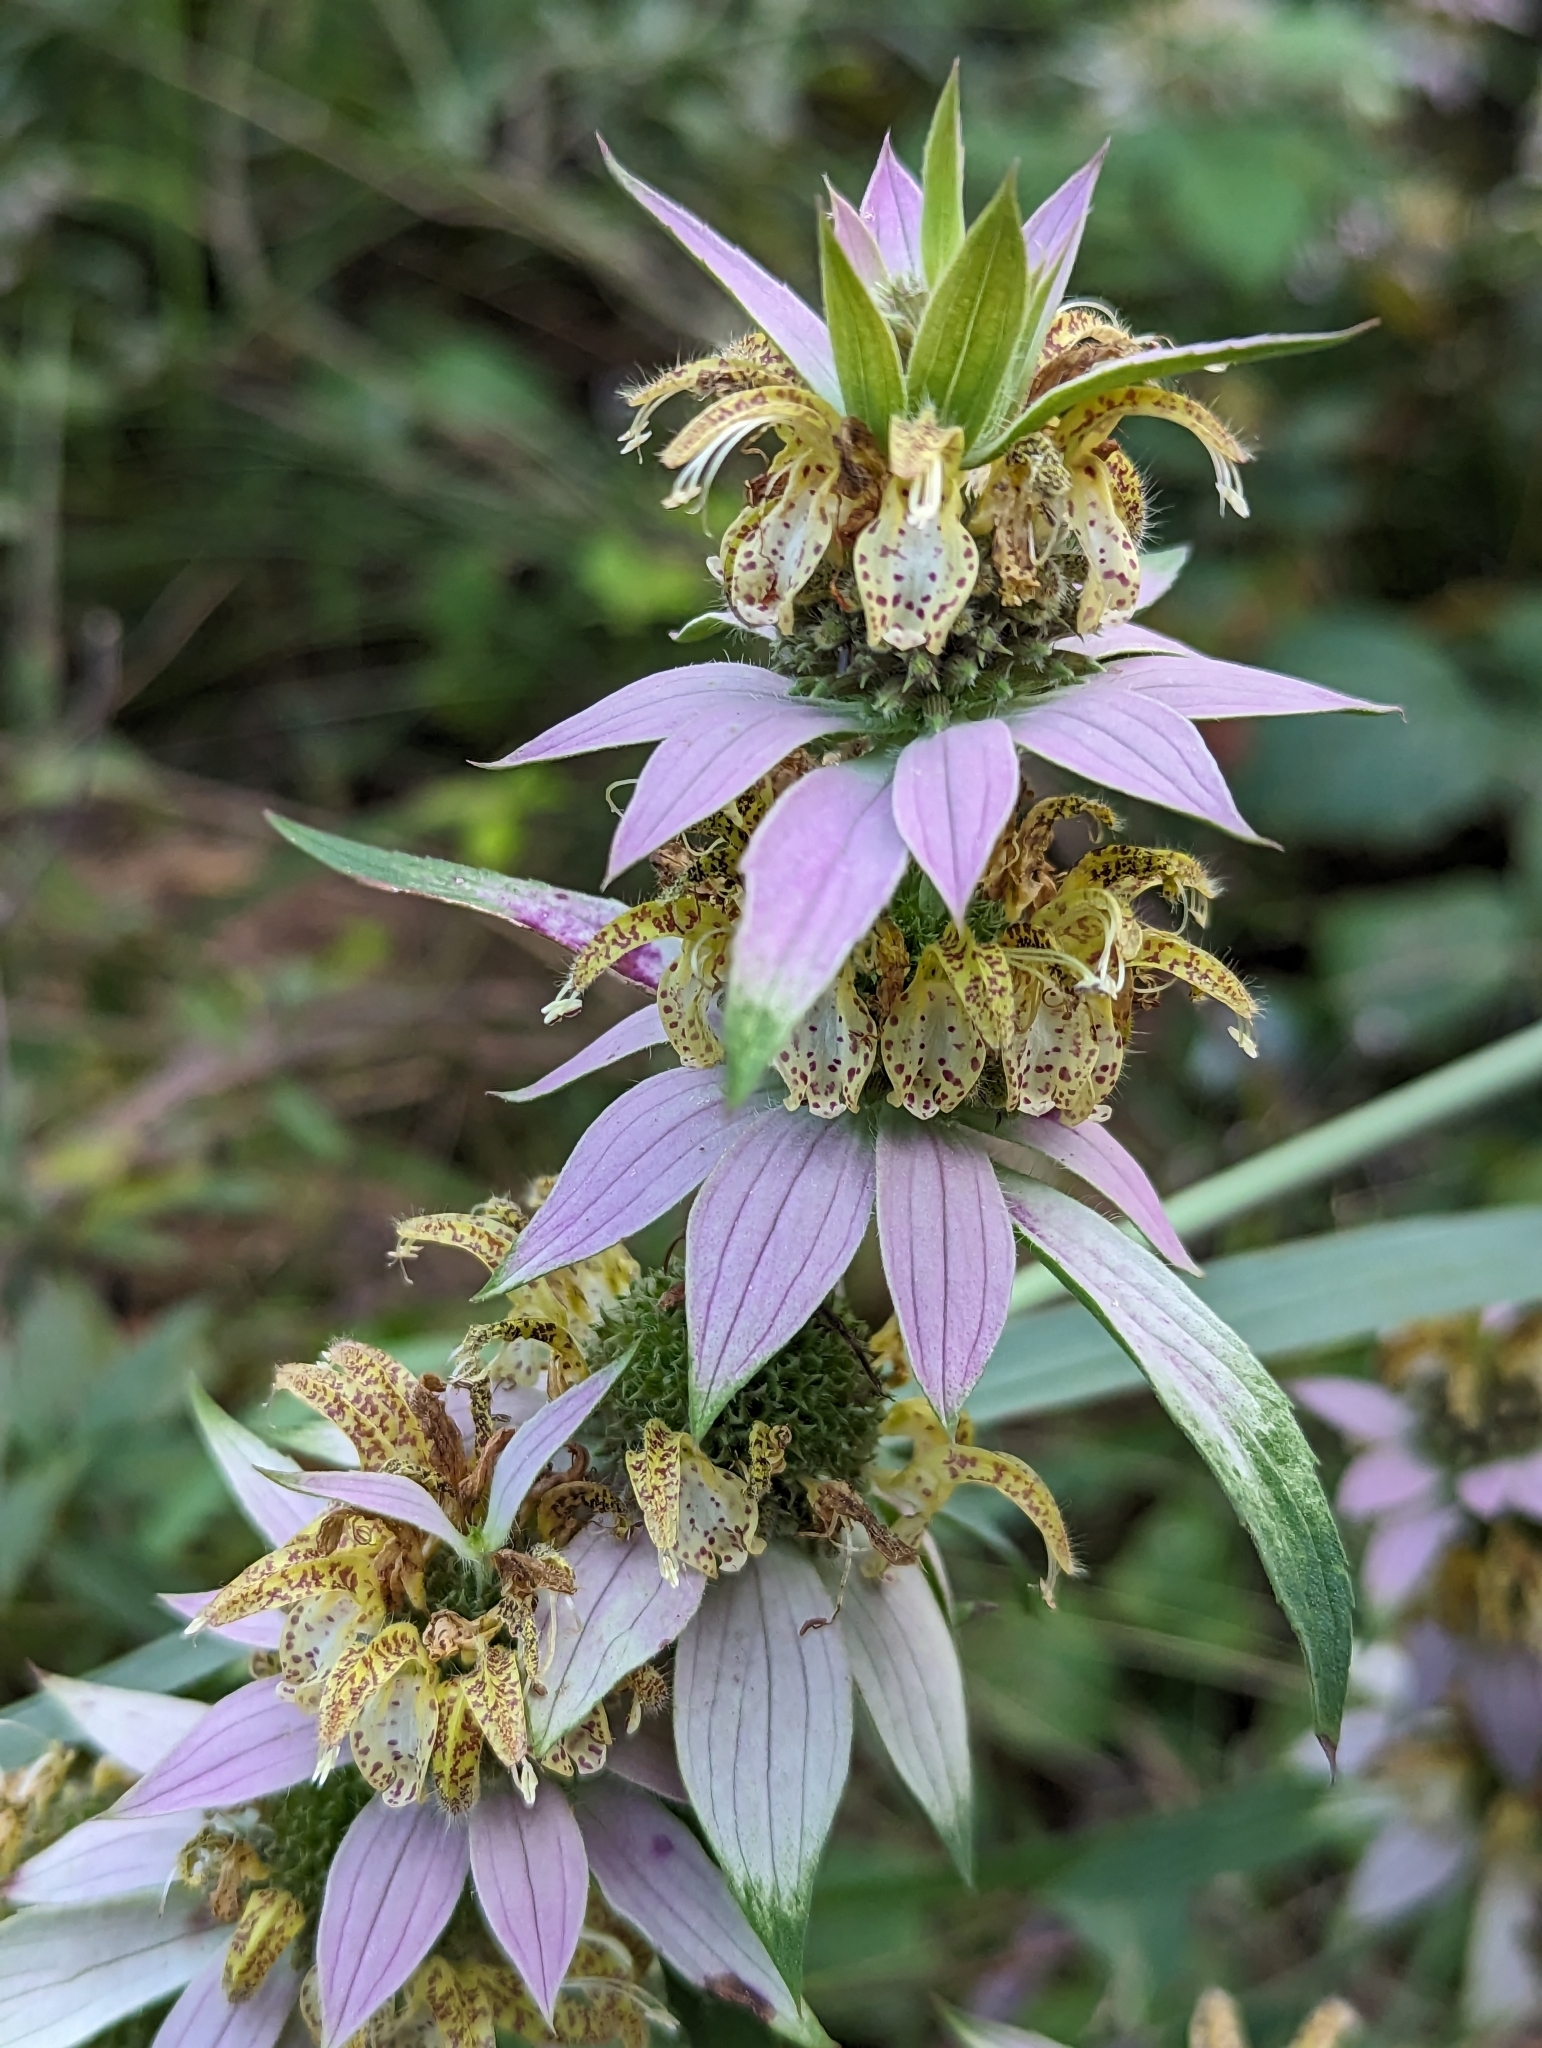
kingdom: Plantae
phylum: Tracheophyta
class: Magnoliopsida
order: Lamiales
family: Lamiaceae
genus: Monarda
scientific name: Monarda punctata
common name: Dotted monarda
